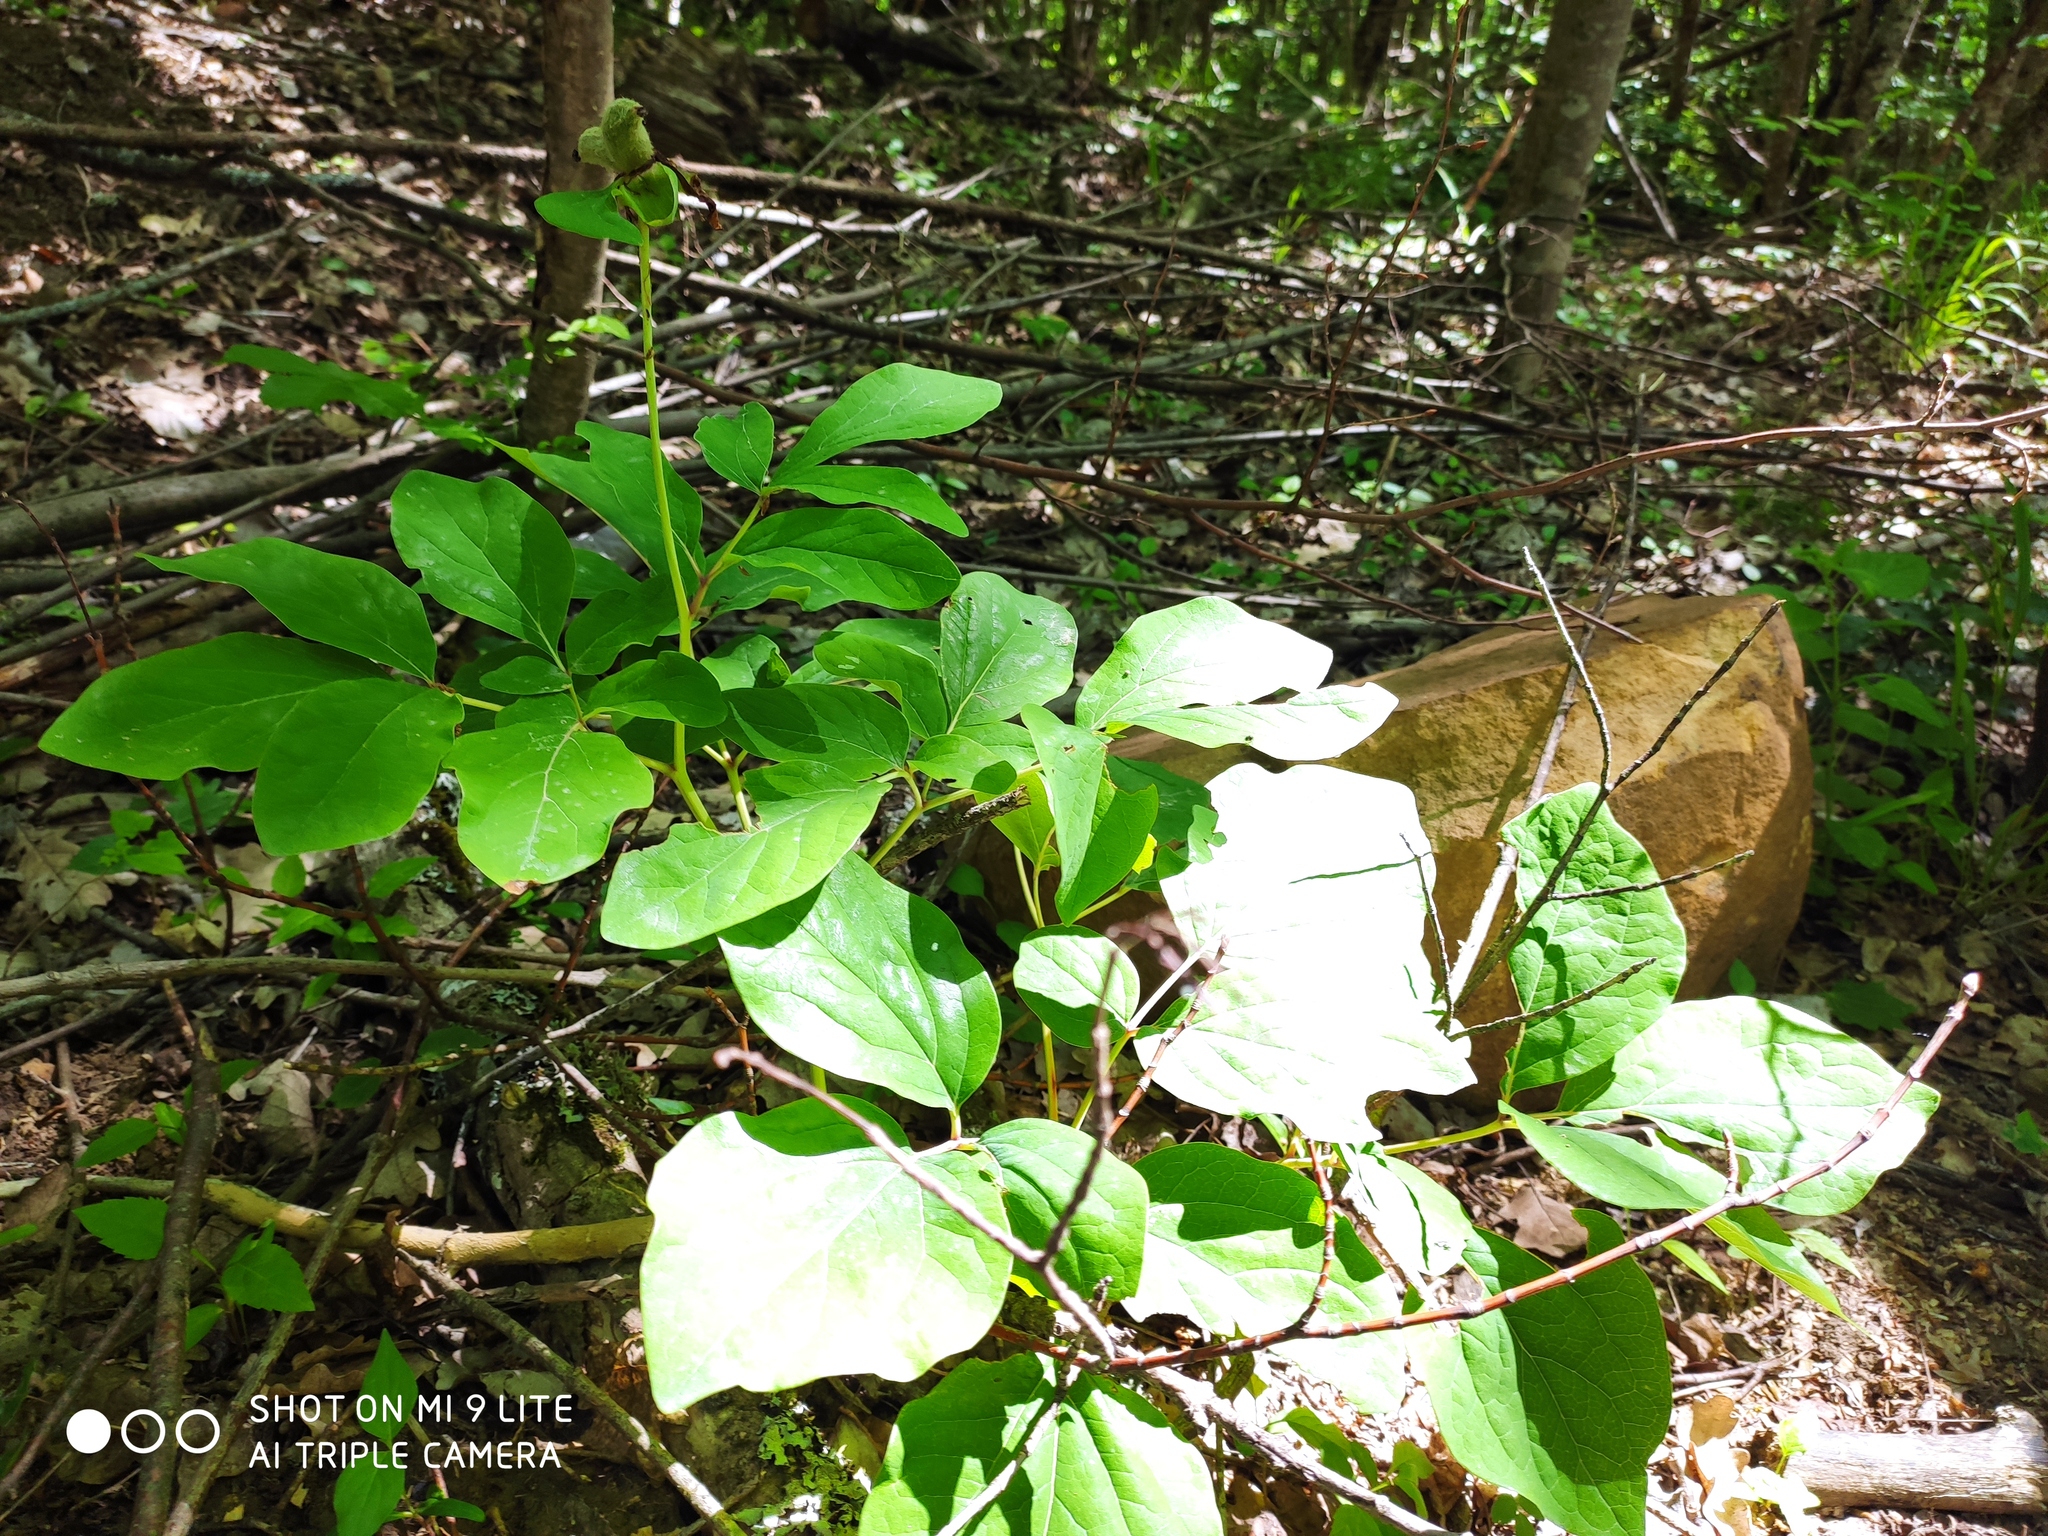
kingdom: Plantae
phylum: Tracheophyta
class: Magnoliopsida
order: Saxifragales
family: Paeoniaceae
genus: Paeonia
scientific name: Paeonia caucasica
